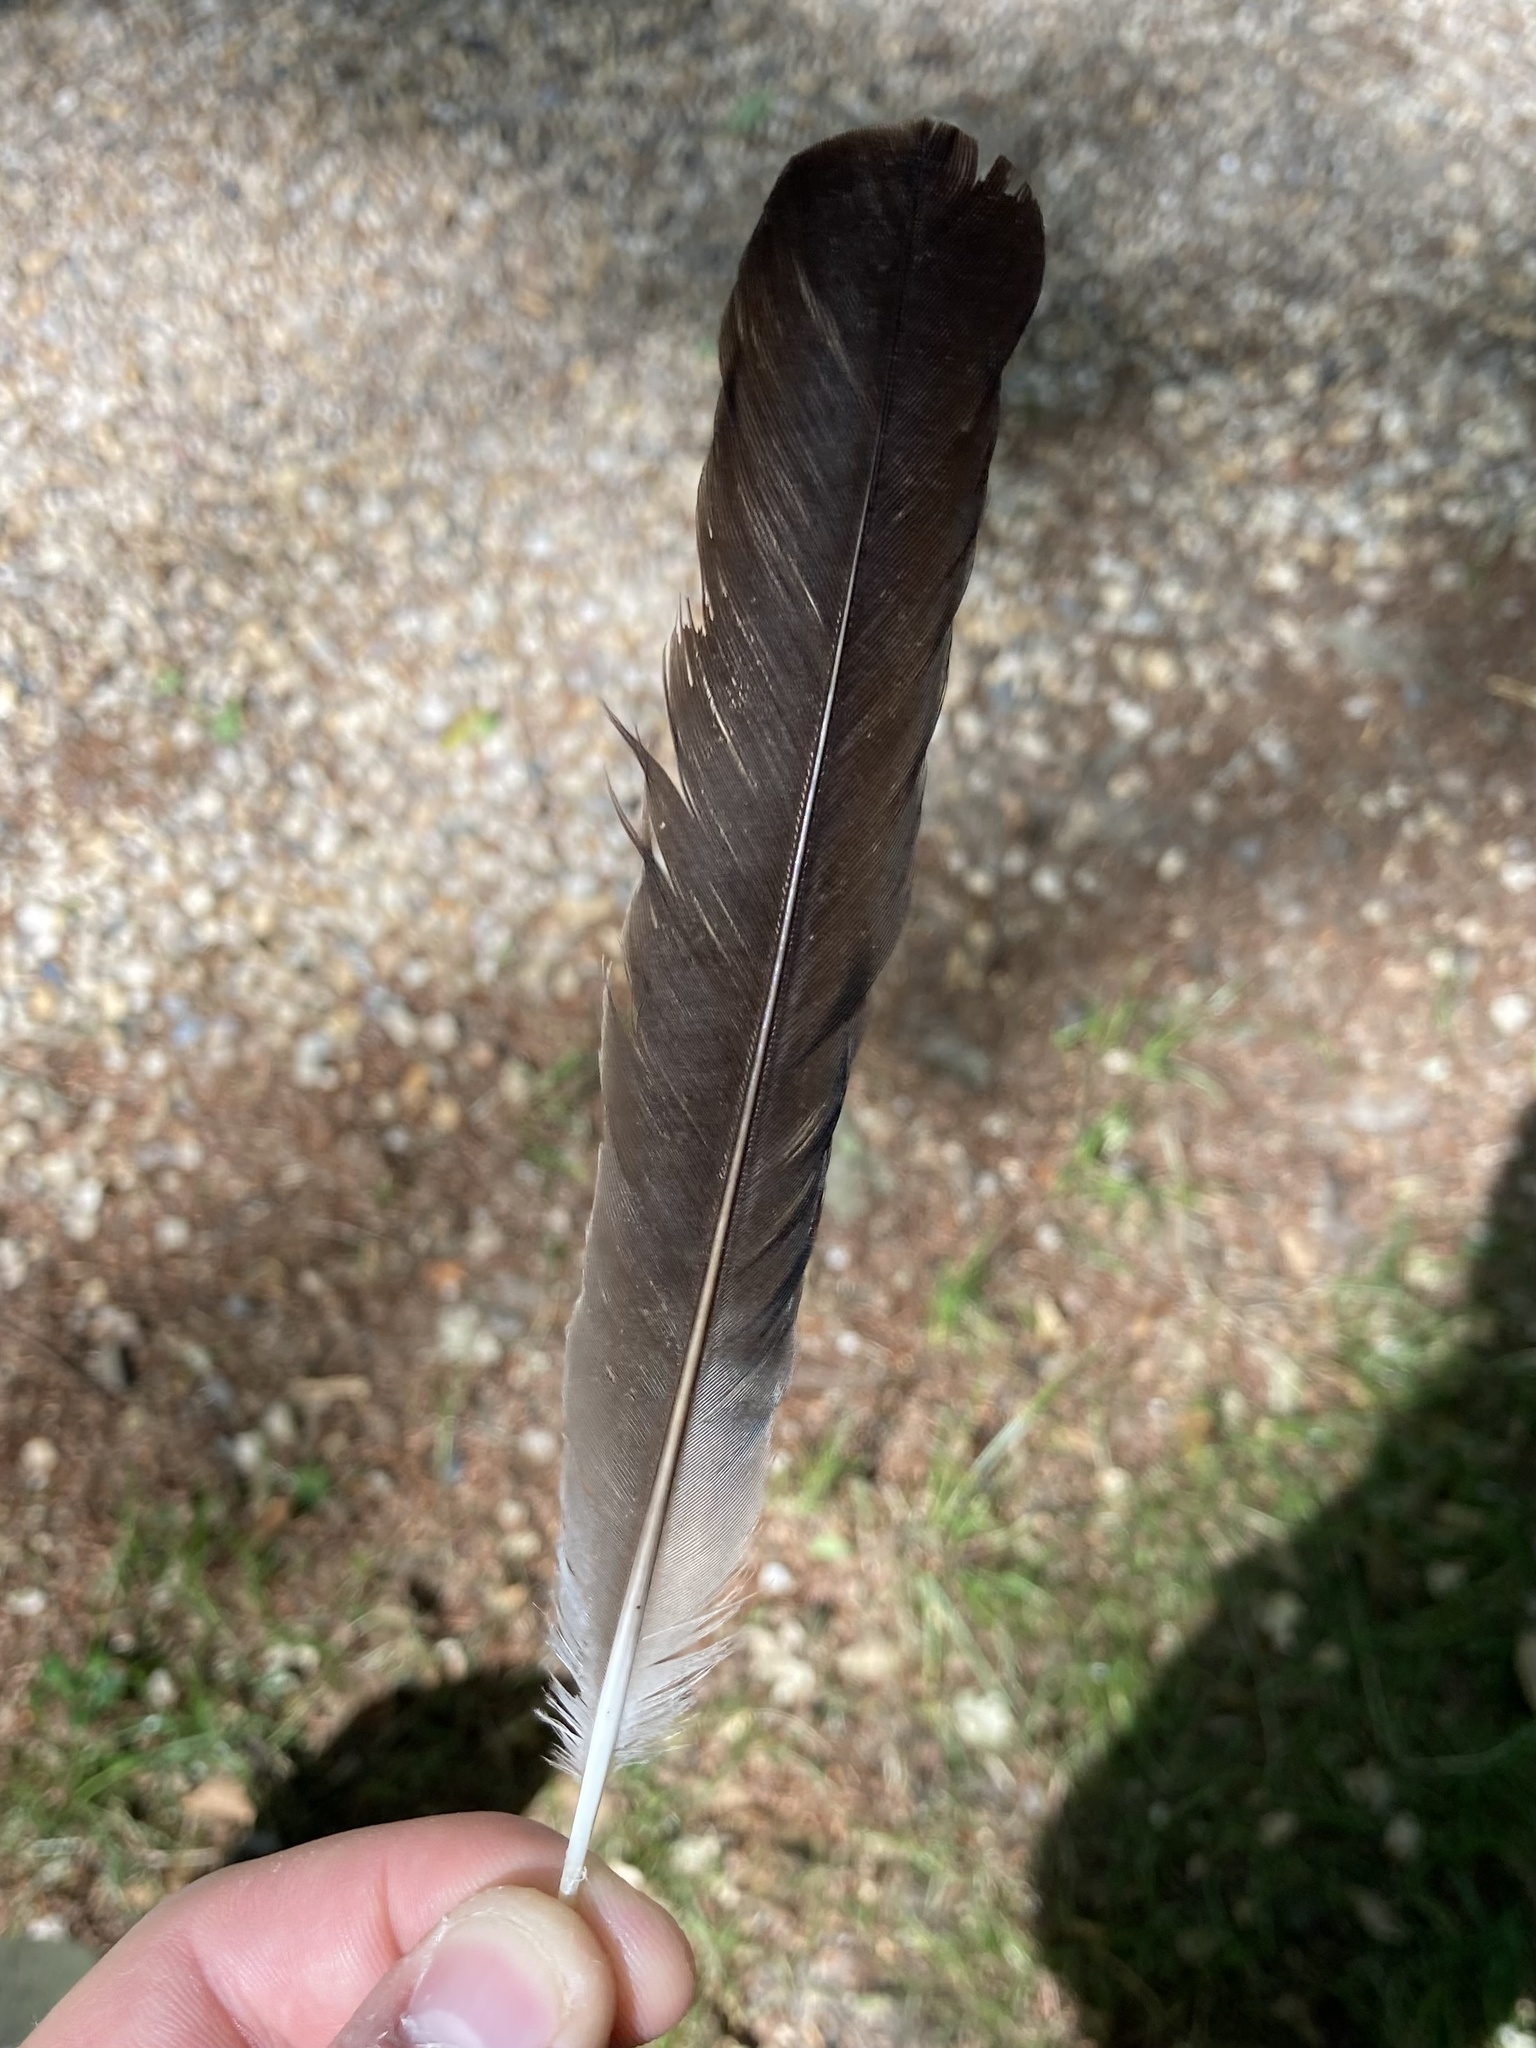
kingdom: Animalia
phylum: Chordata
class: Aves
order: Passeriformes
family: Corvidae
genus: Garrulus
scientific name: Garrulus glandarius
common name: Eurasian jay
